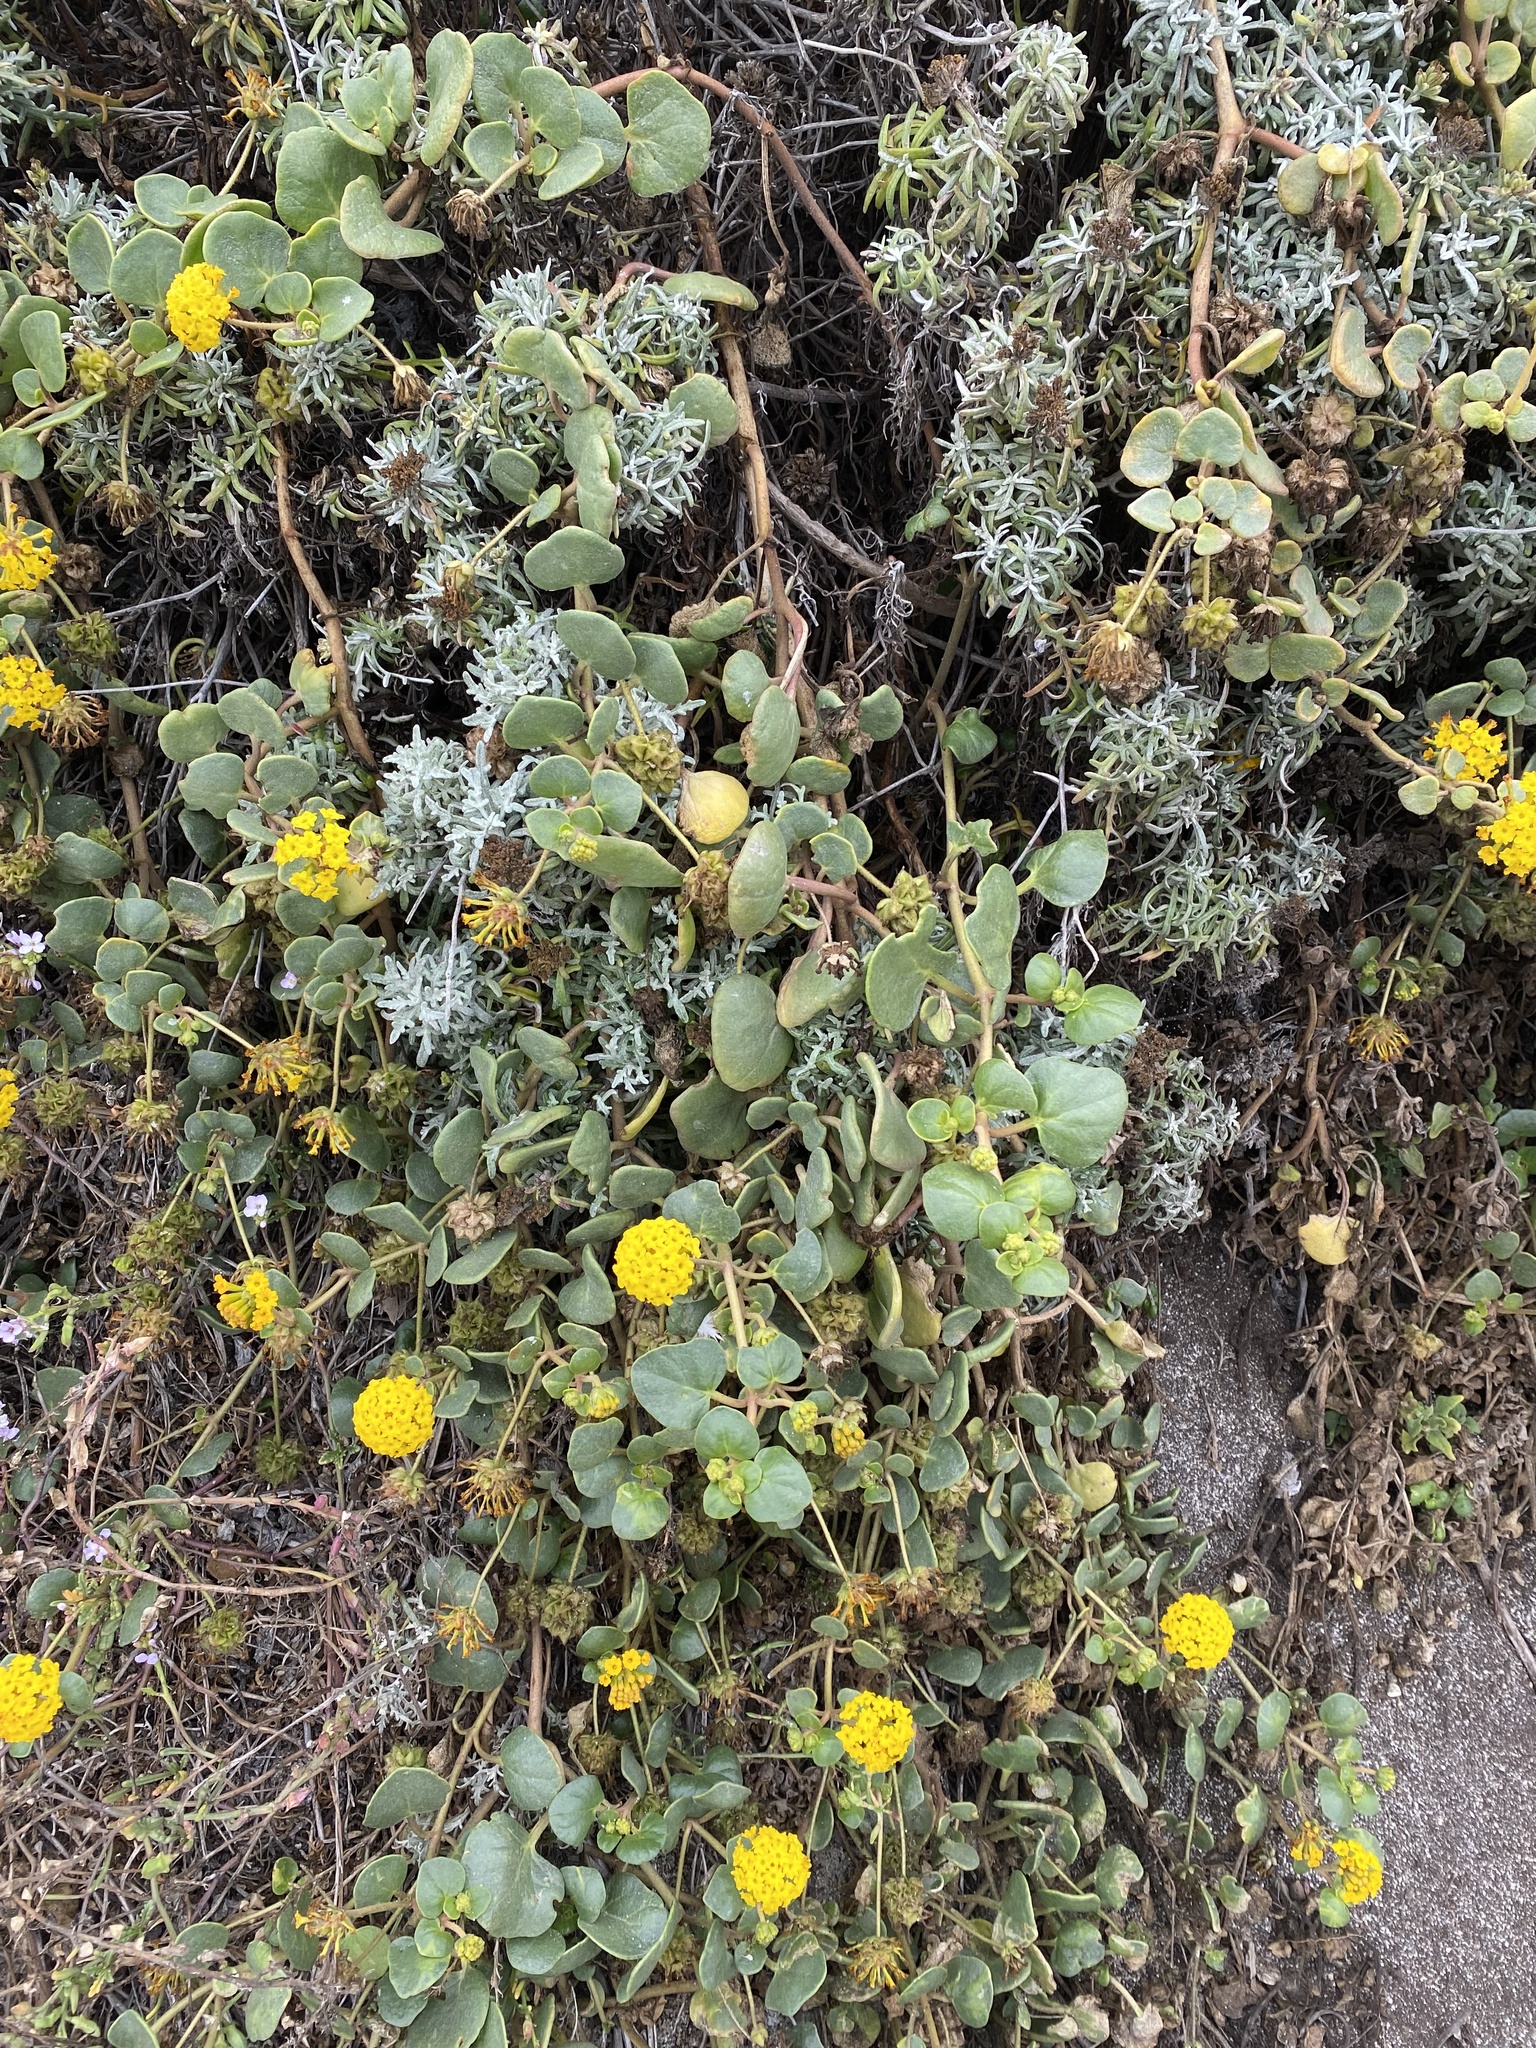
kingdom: Plantae
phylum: Tracheophyta
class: Magnoliopsida
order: Caryophyllales
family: Nyctaginaceae
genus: Abronia
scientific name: Abronia latifolia
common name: Yellow sand-verbena
